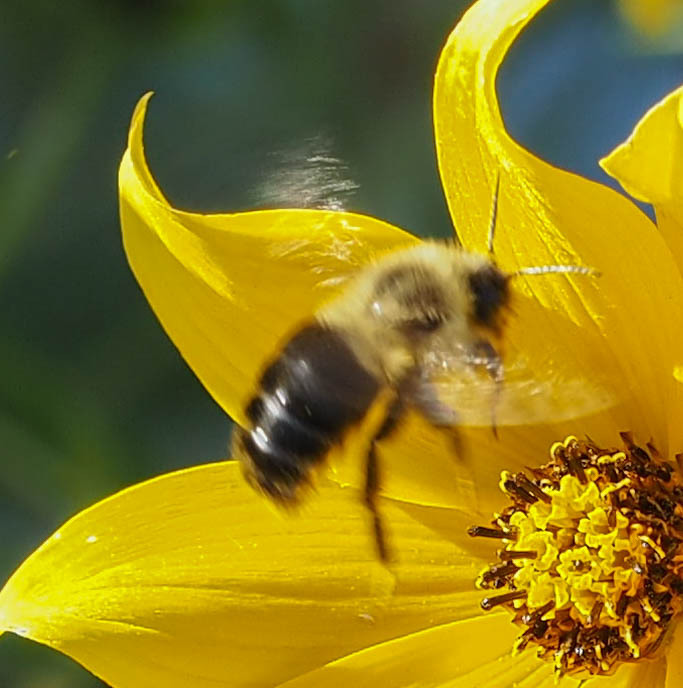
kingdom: Animalia
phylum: Arthropoda
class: Insecta
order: Hymenoptera
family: Apidae
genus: Bombus
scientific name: Bombus impatiens
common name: Common eastern bumble bee
